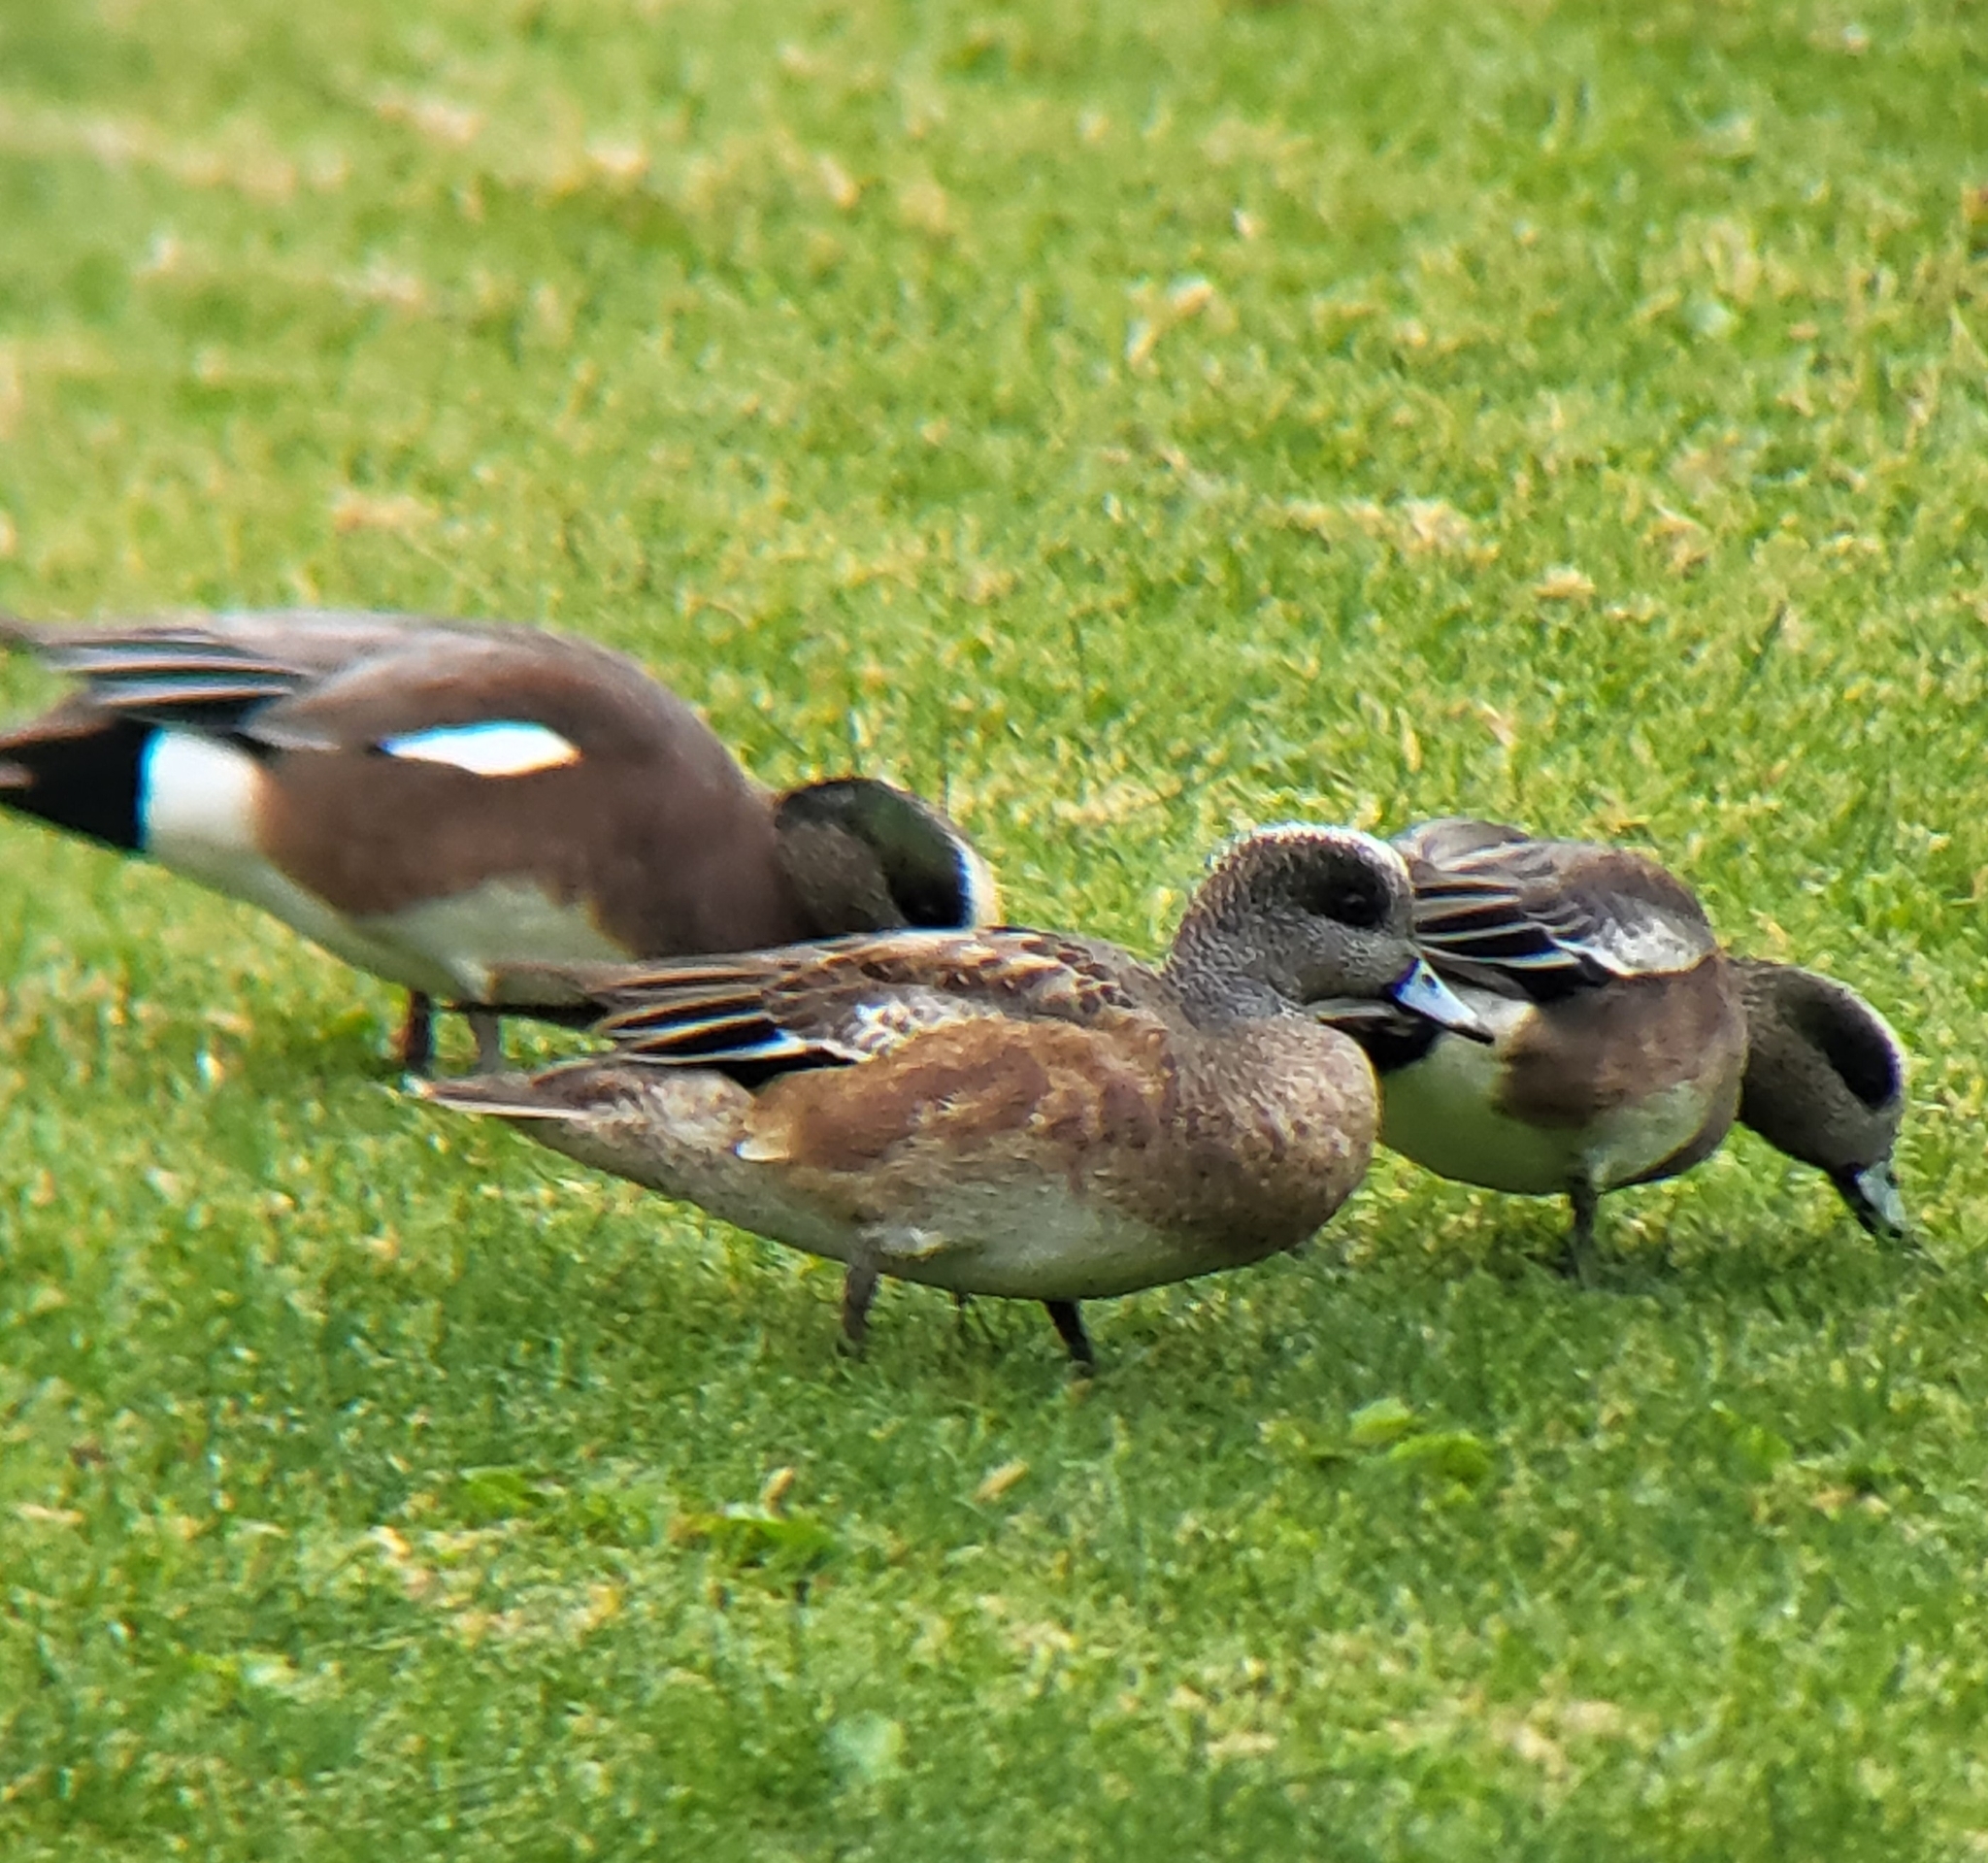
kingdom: Animalia
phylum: Chordata
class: Aves
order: Anseriformes
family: Anatidae
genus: Mareca
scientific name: Mareca americana
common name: American wigeon
